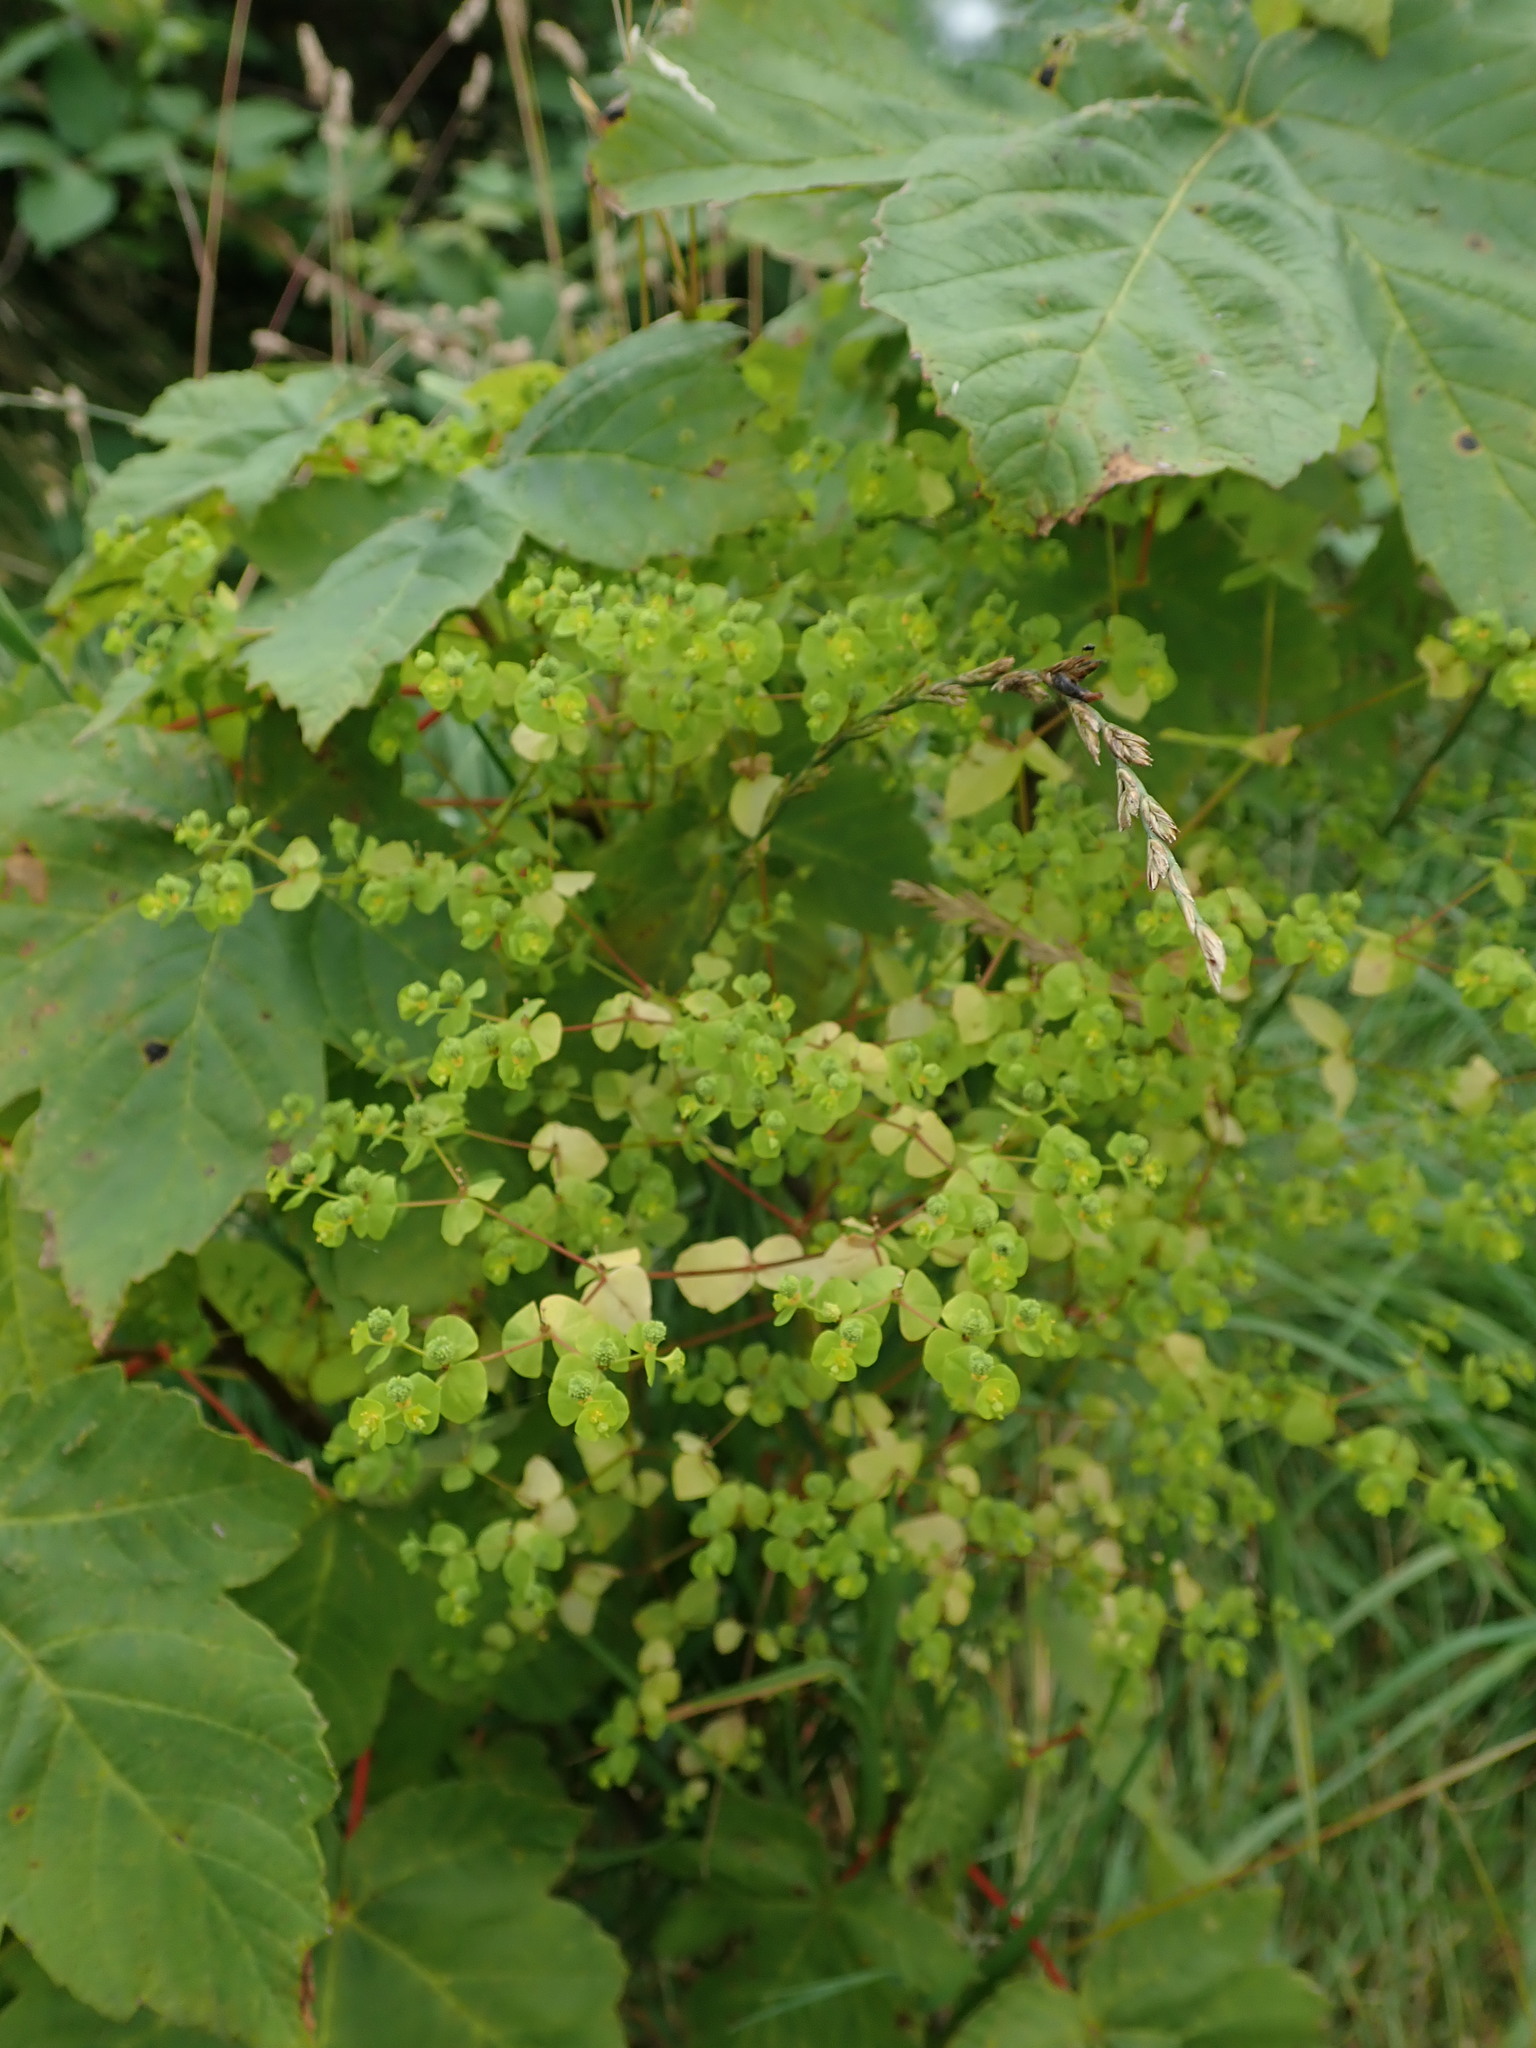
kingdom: Plantae
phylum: Tracheophyta
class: Magnoliopsida
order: Malpighiales
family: Euphorbiaceae
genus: Euphorbia
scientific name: Euphorbia stricta
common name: Upright spurge
